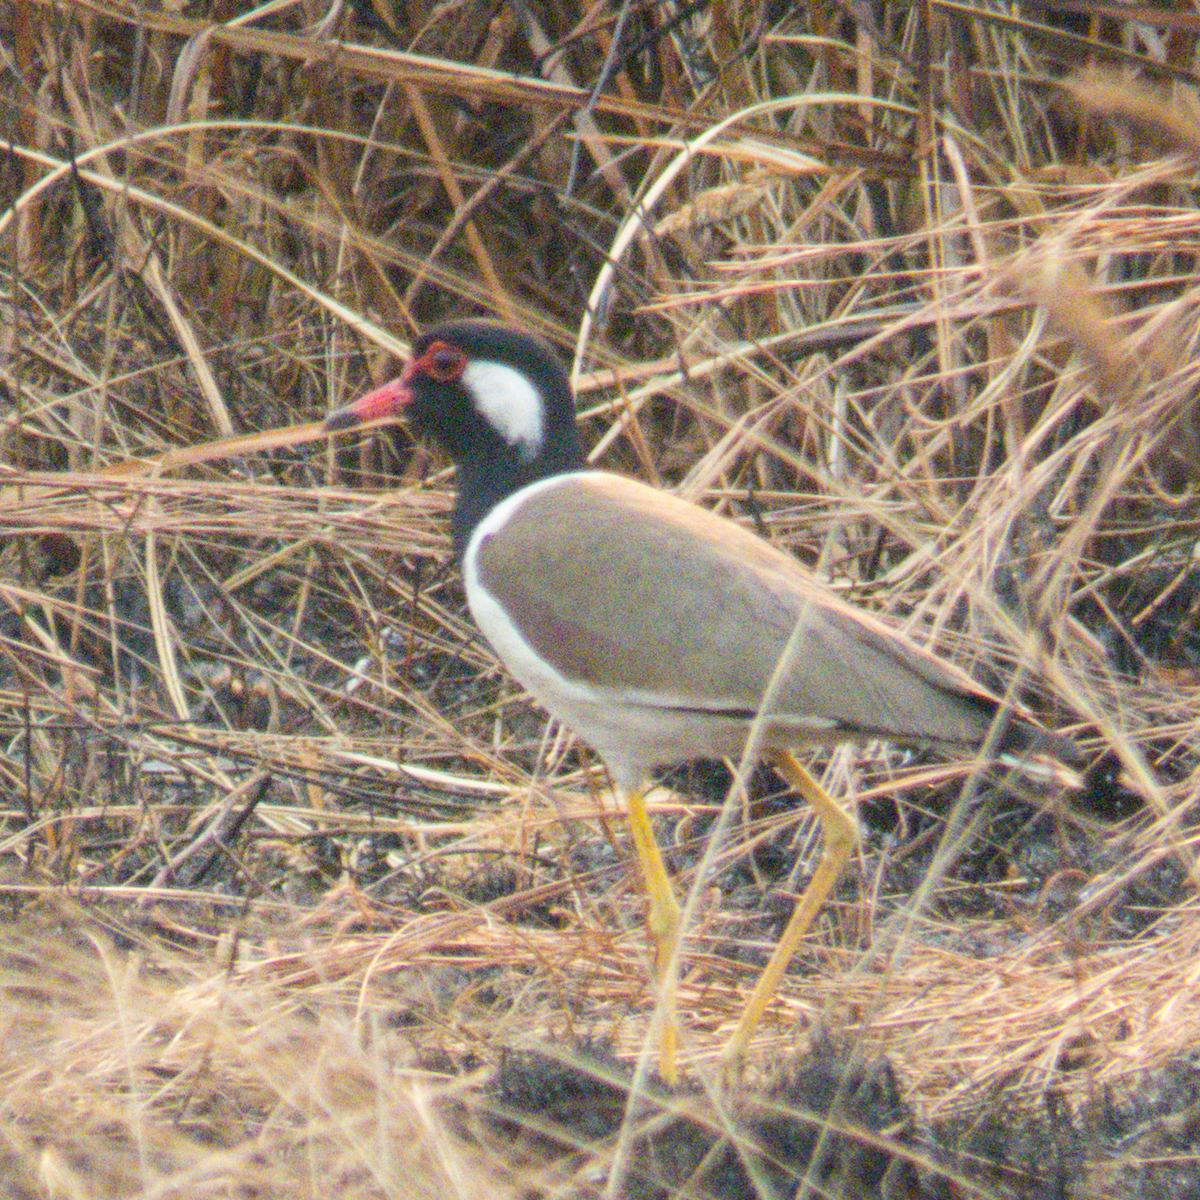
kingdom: Animalia
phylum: Chordata
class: Aves
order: Charadriiformes
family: Charadriidae
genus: Vanellus
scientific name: Vanellus indicus
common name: Red-wattled lapwing
